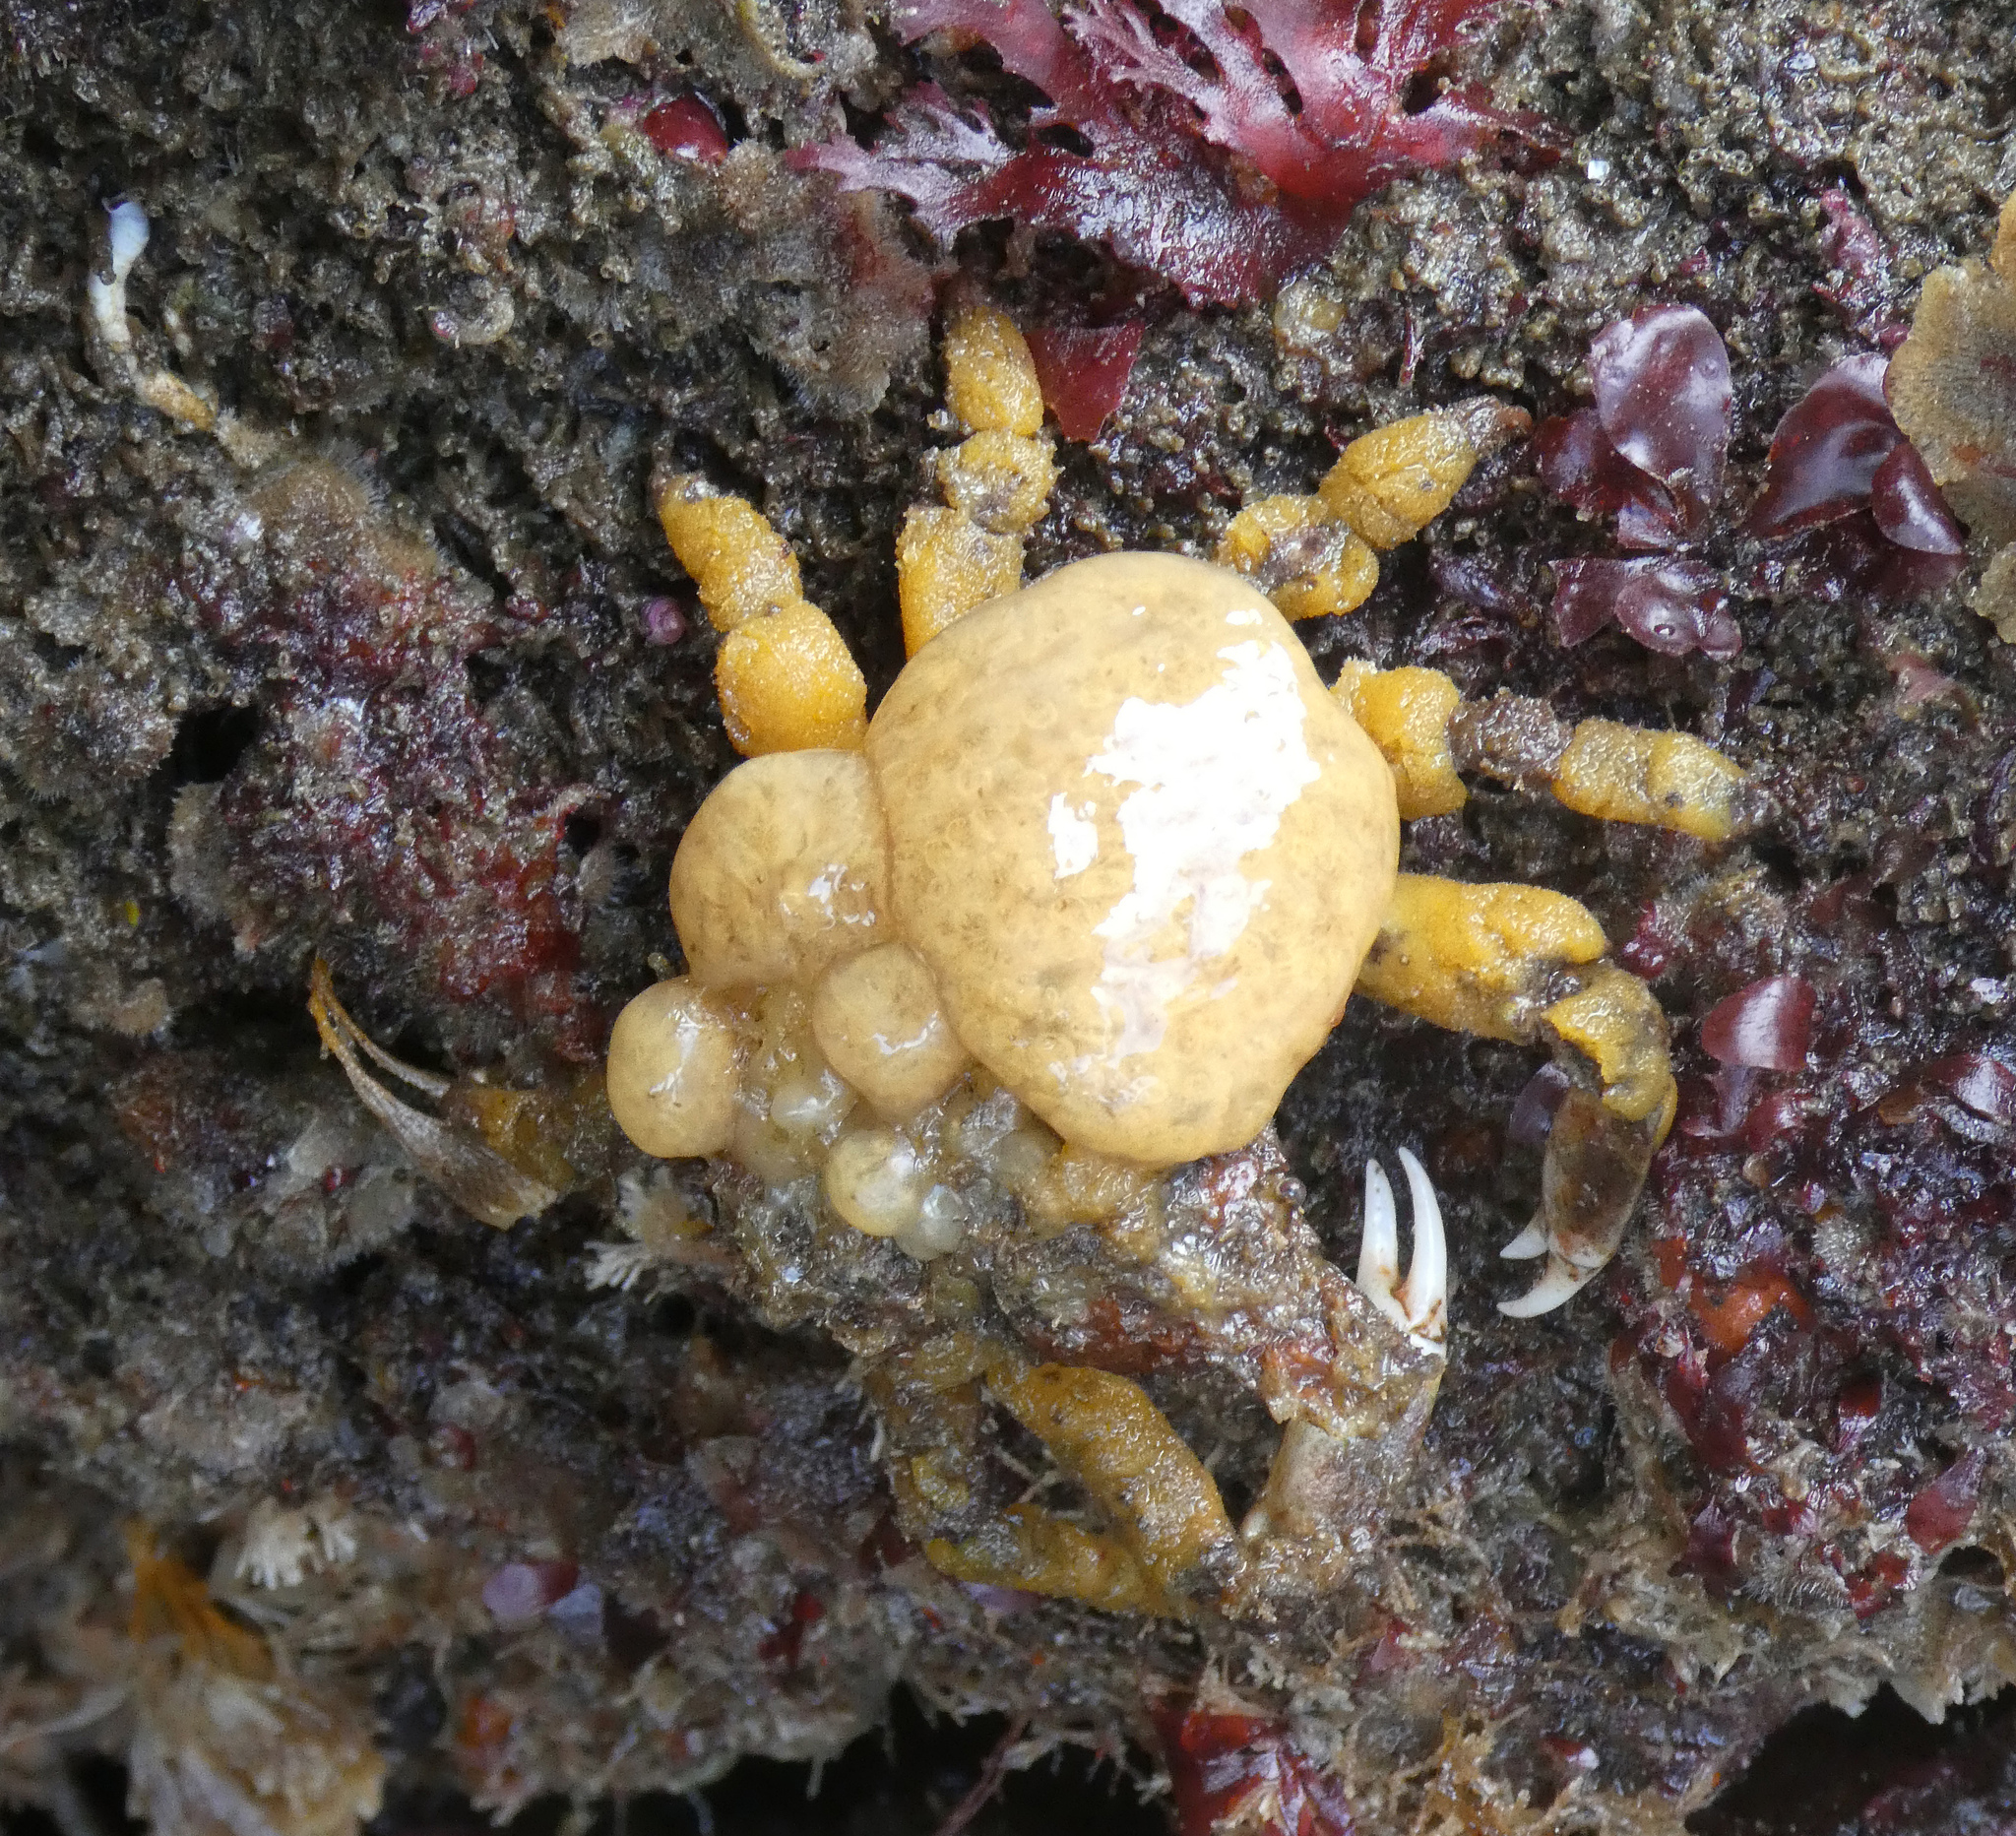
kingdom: Animalia
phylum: Arthropoda
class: Malacostraca
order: Decapoda
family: Epialtidae
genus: Scyra
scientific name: Scyra acutifrons
